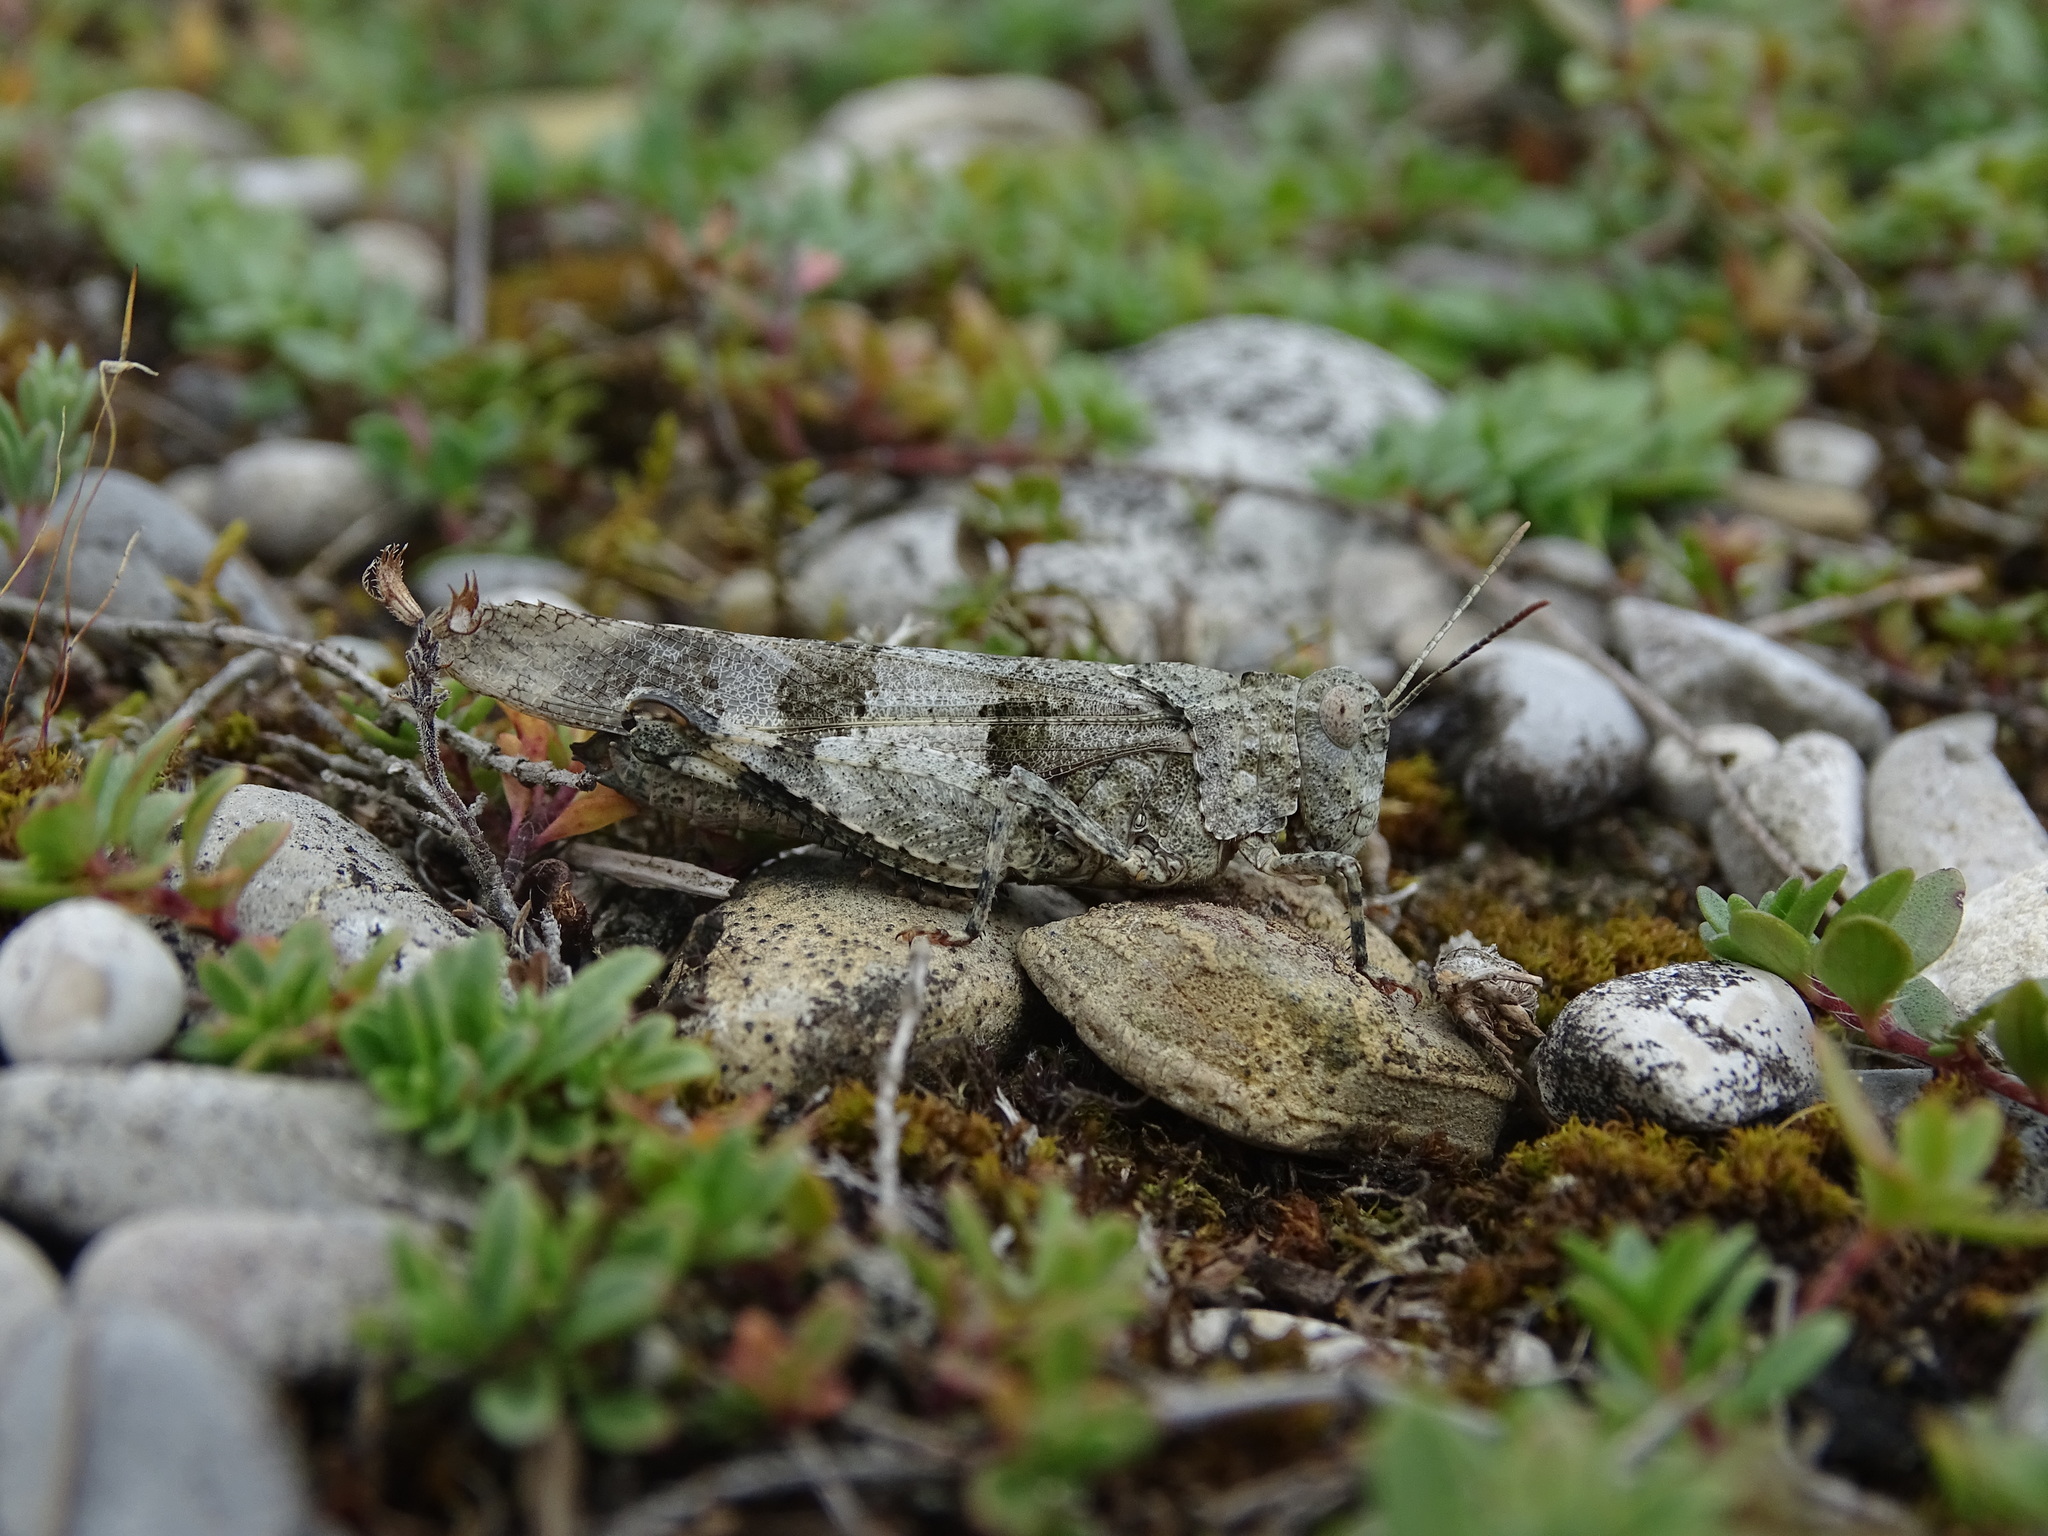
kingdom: Animalia
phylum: Arthropoda
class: Insecta
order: Orthoptera
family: Acrididae
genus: Oedipoda
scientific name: Oedipoda caerulescens
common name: Blue-winged grasshopper
